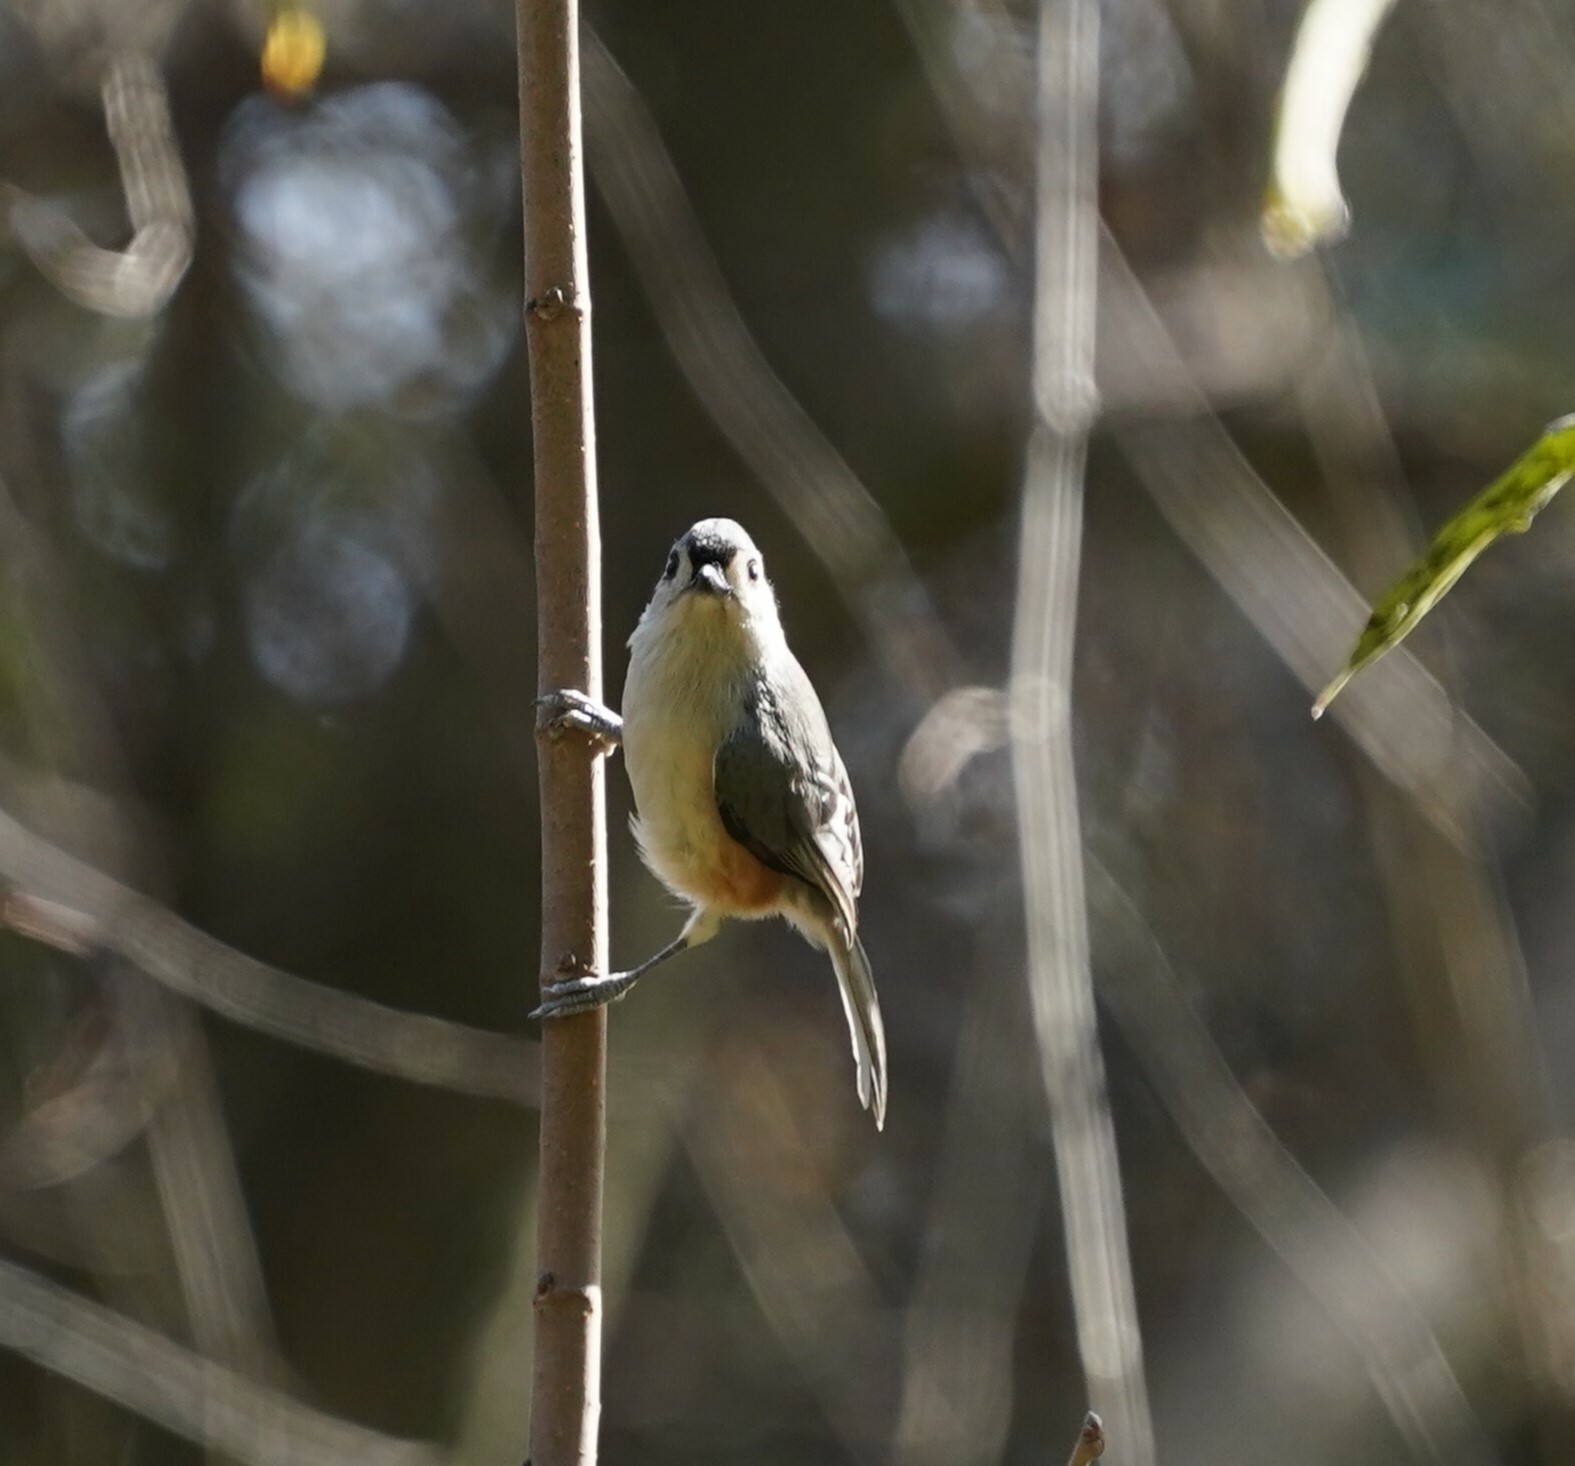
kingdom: Animalia
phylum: Chordata
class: Aves
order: Passeriformes
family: Paridae
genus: Baeolophus
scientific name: Baeolophus bicolor
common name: Tufted titmouse
